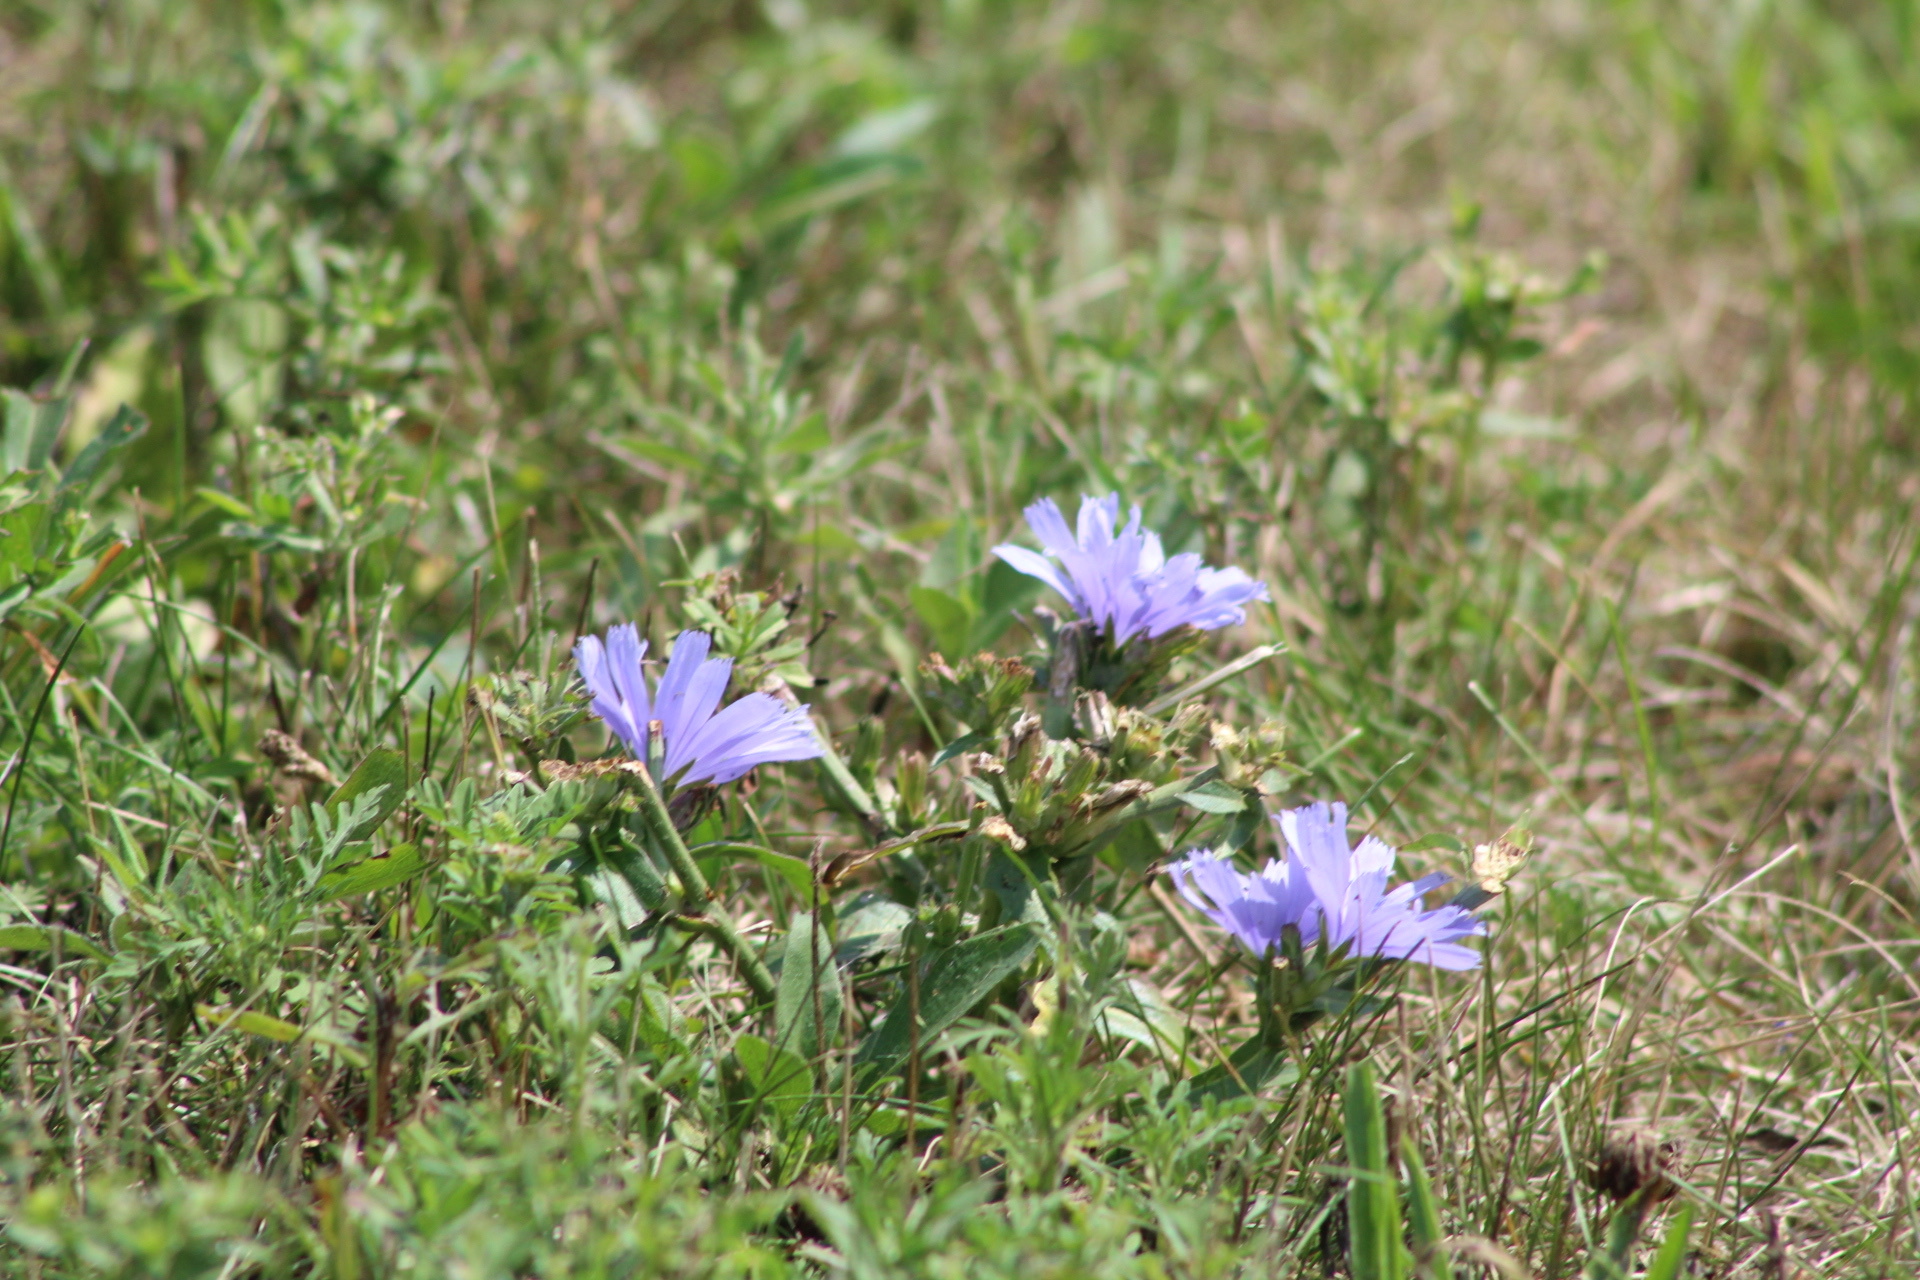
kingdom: Plantae
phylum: Tracheophyta
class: Magnoliopsida
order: Asterales
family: Asteraceae
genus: Cichorium
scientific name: Cichorium intybus
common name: Chicory
